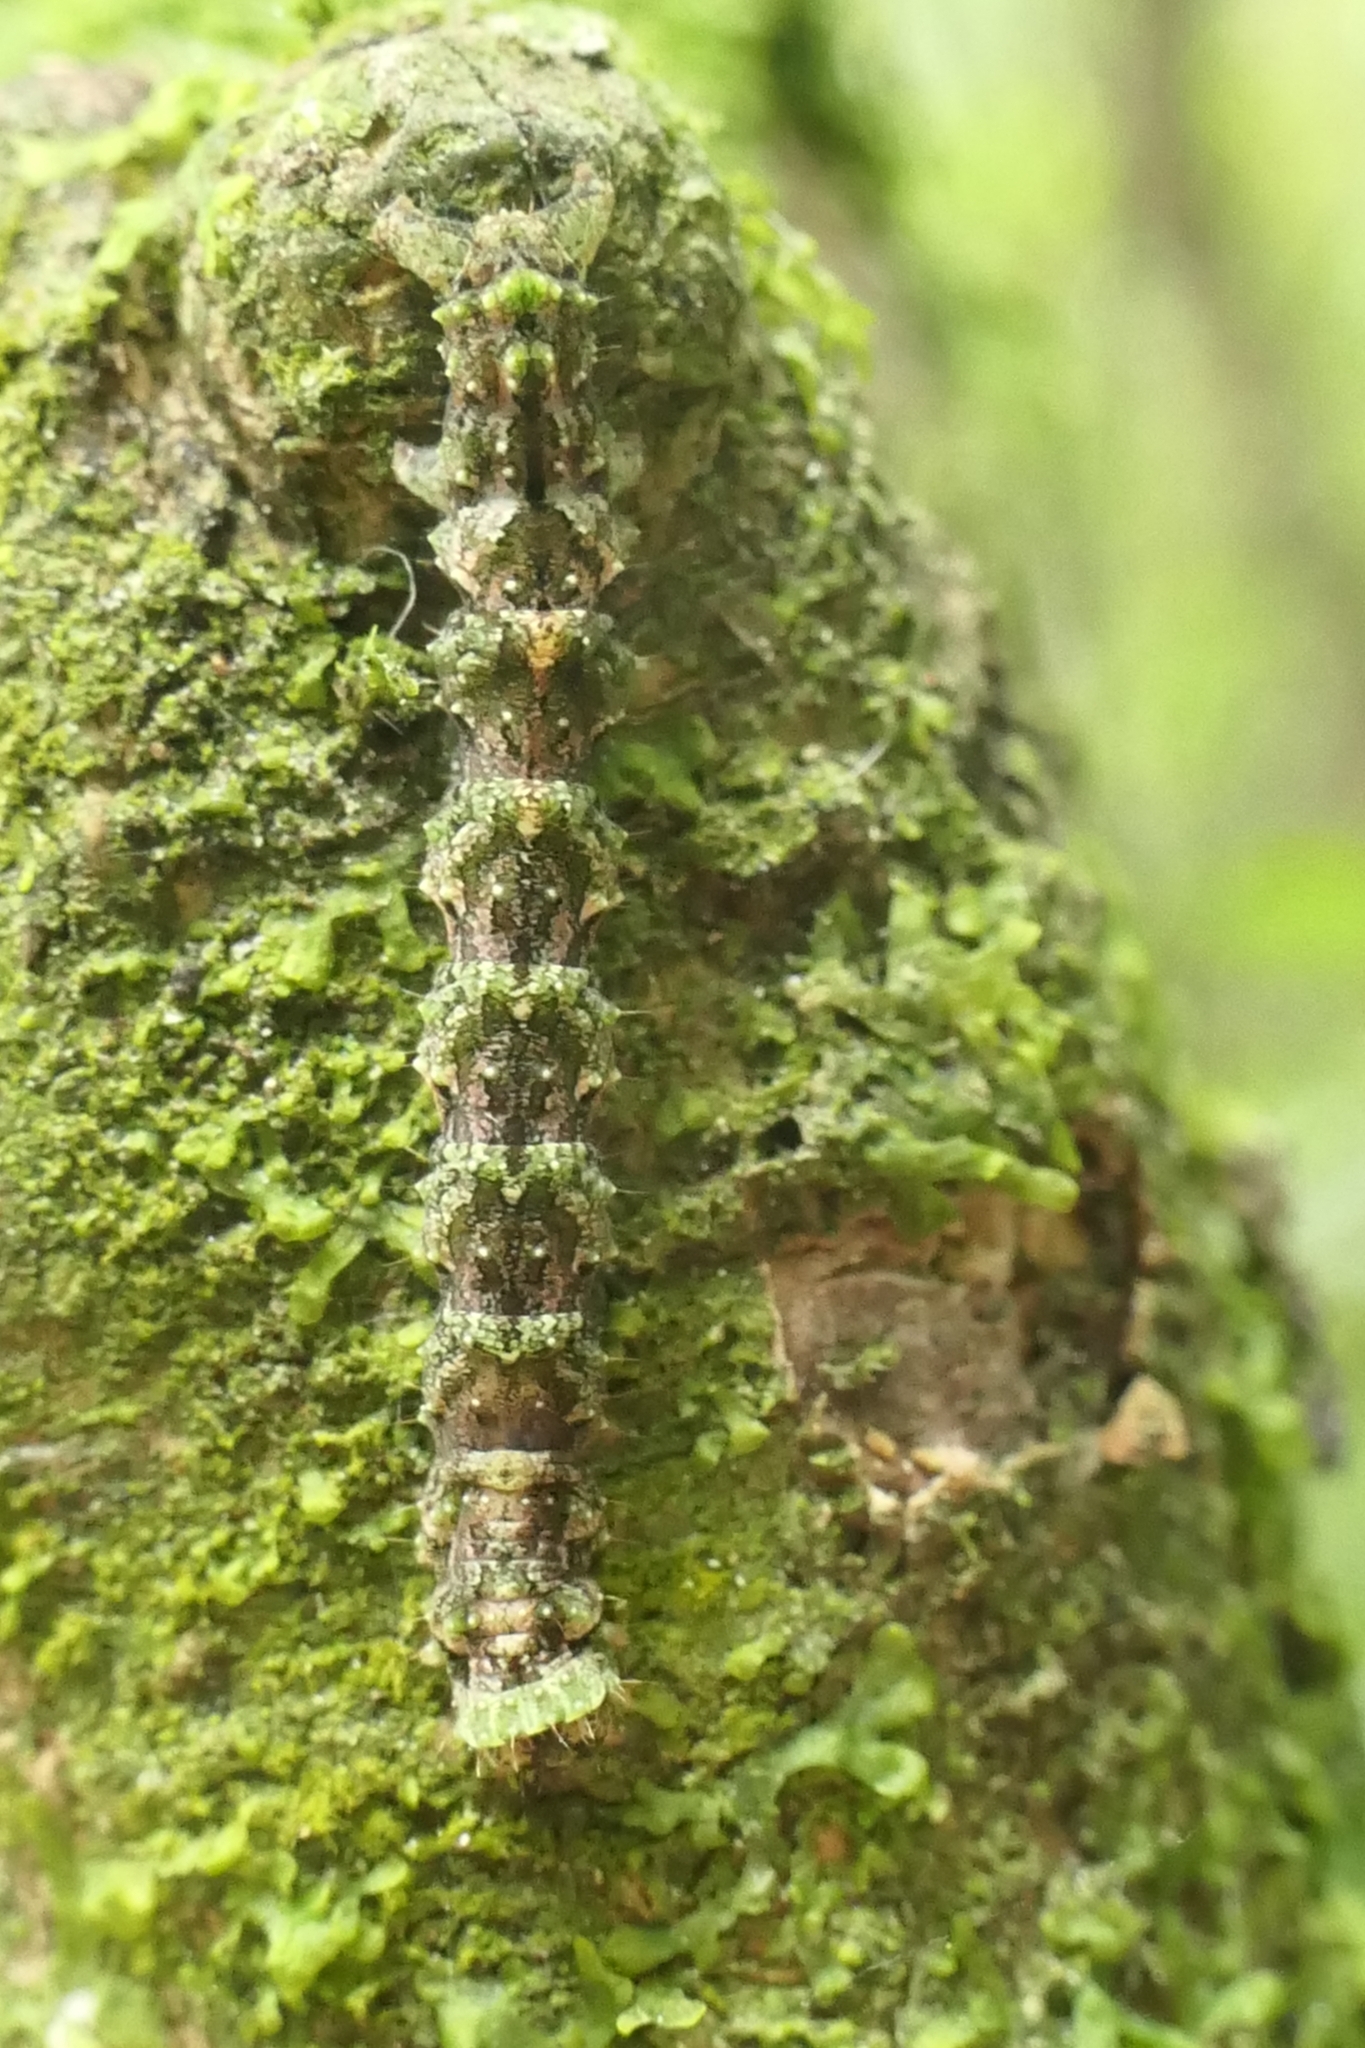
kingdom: Animalia
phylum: Arthropoda
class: Insecta
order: Lepidoptera
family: Geometridae
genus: Austrocidaria
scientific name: Austrocidaria similata
